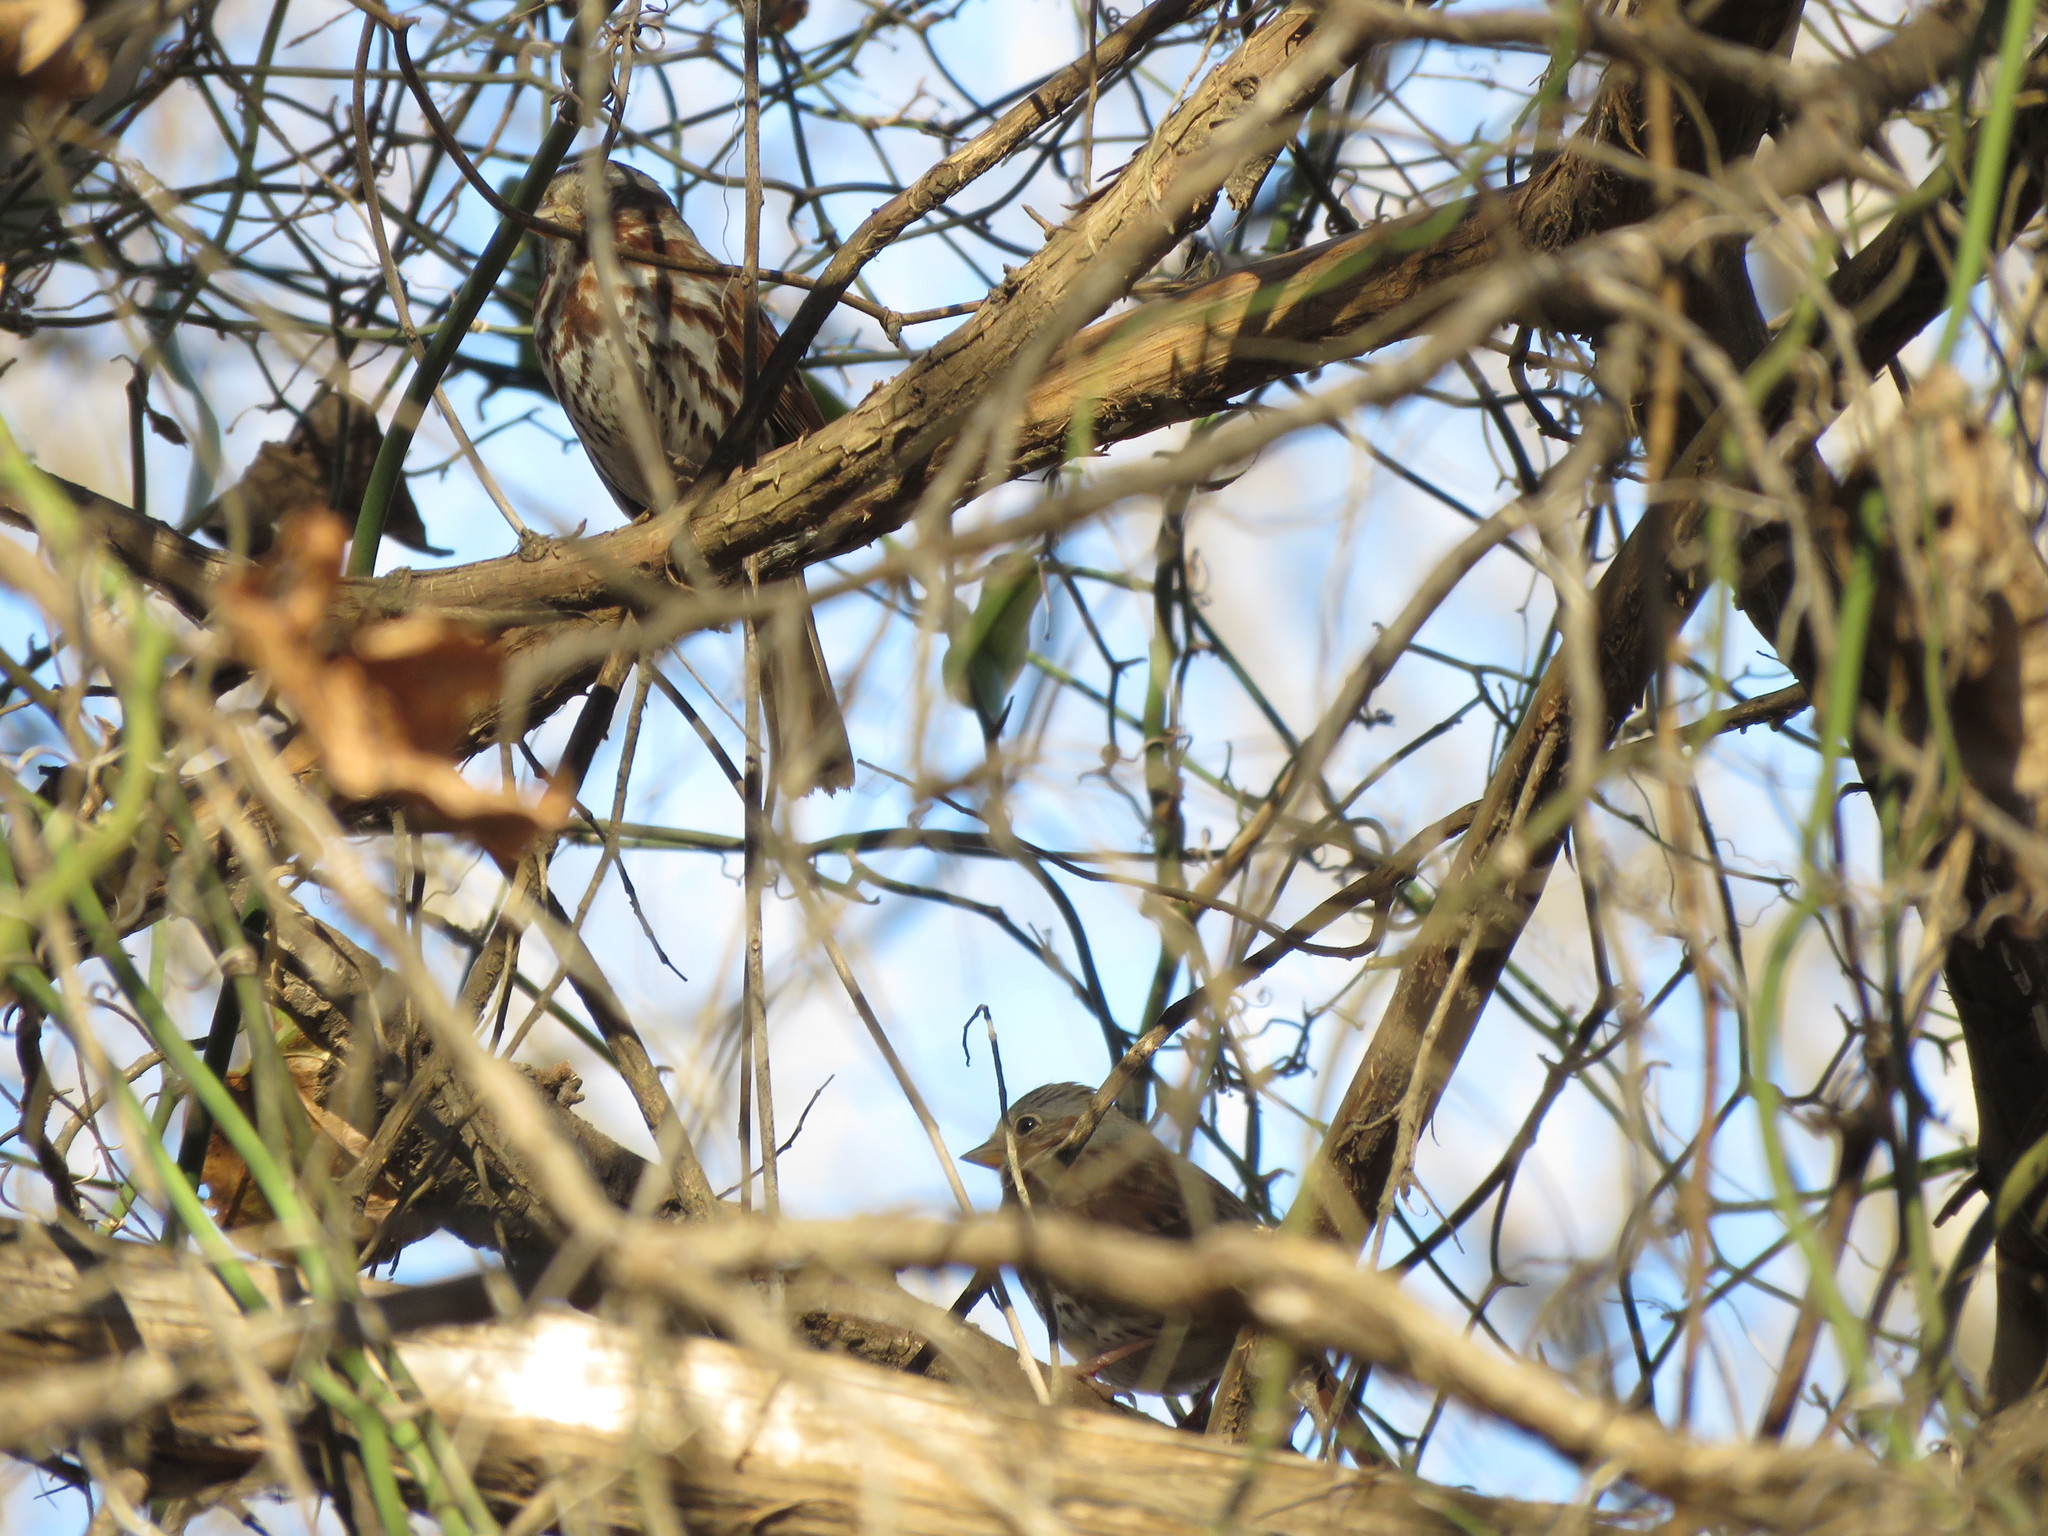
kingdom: Animalia
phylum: Chordata
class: Aves
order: Passeriformes
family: Passerellidae
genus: Passerella
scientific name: Passerella iliaca
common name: Fox sparrow
